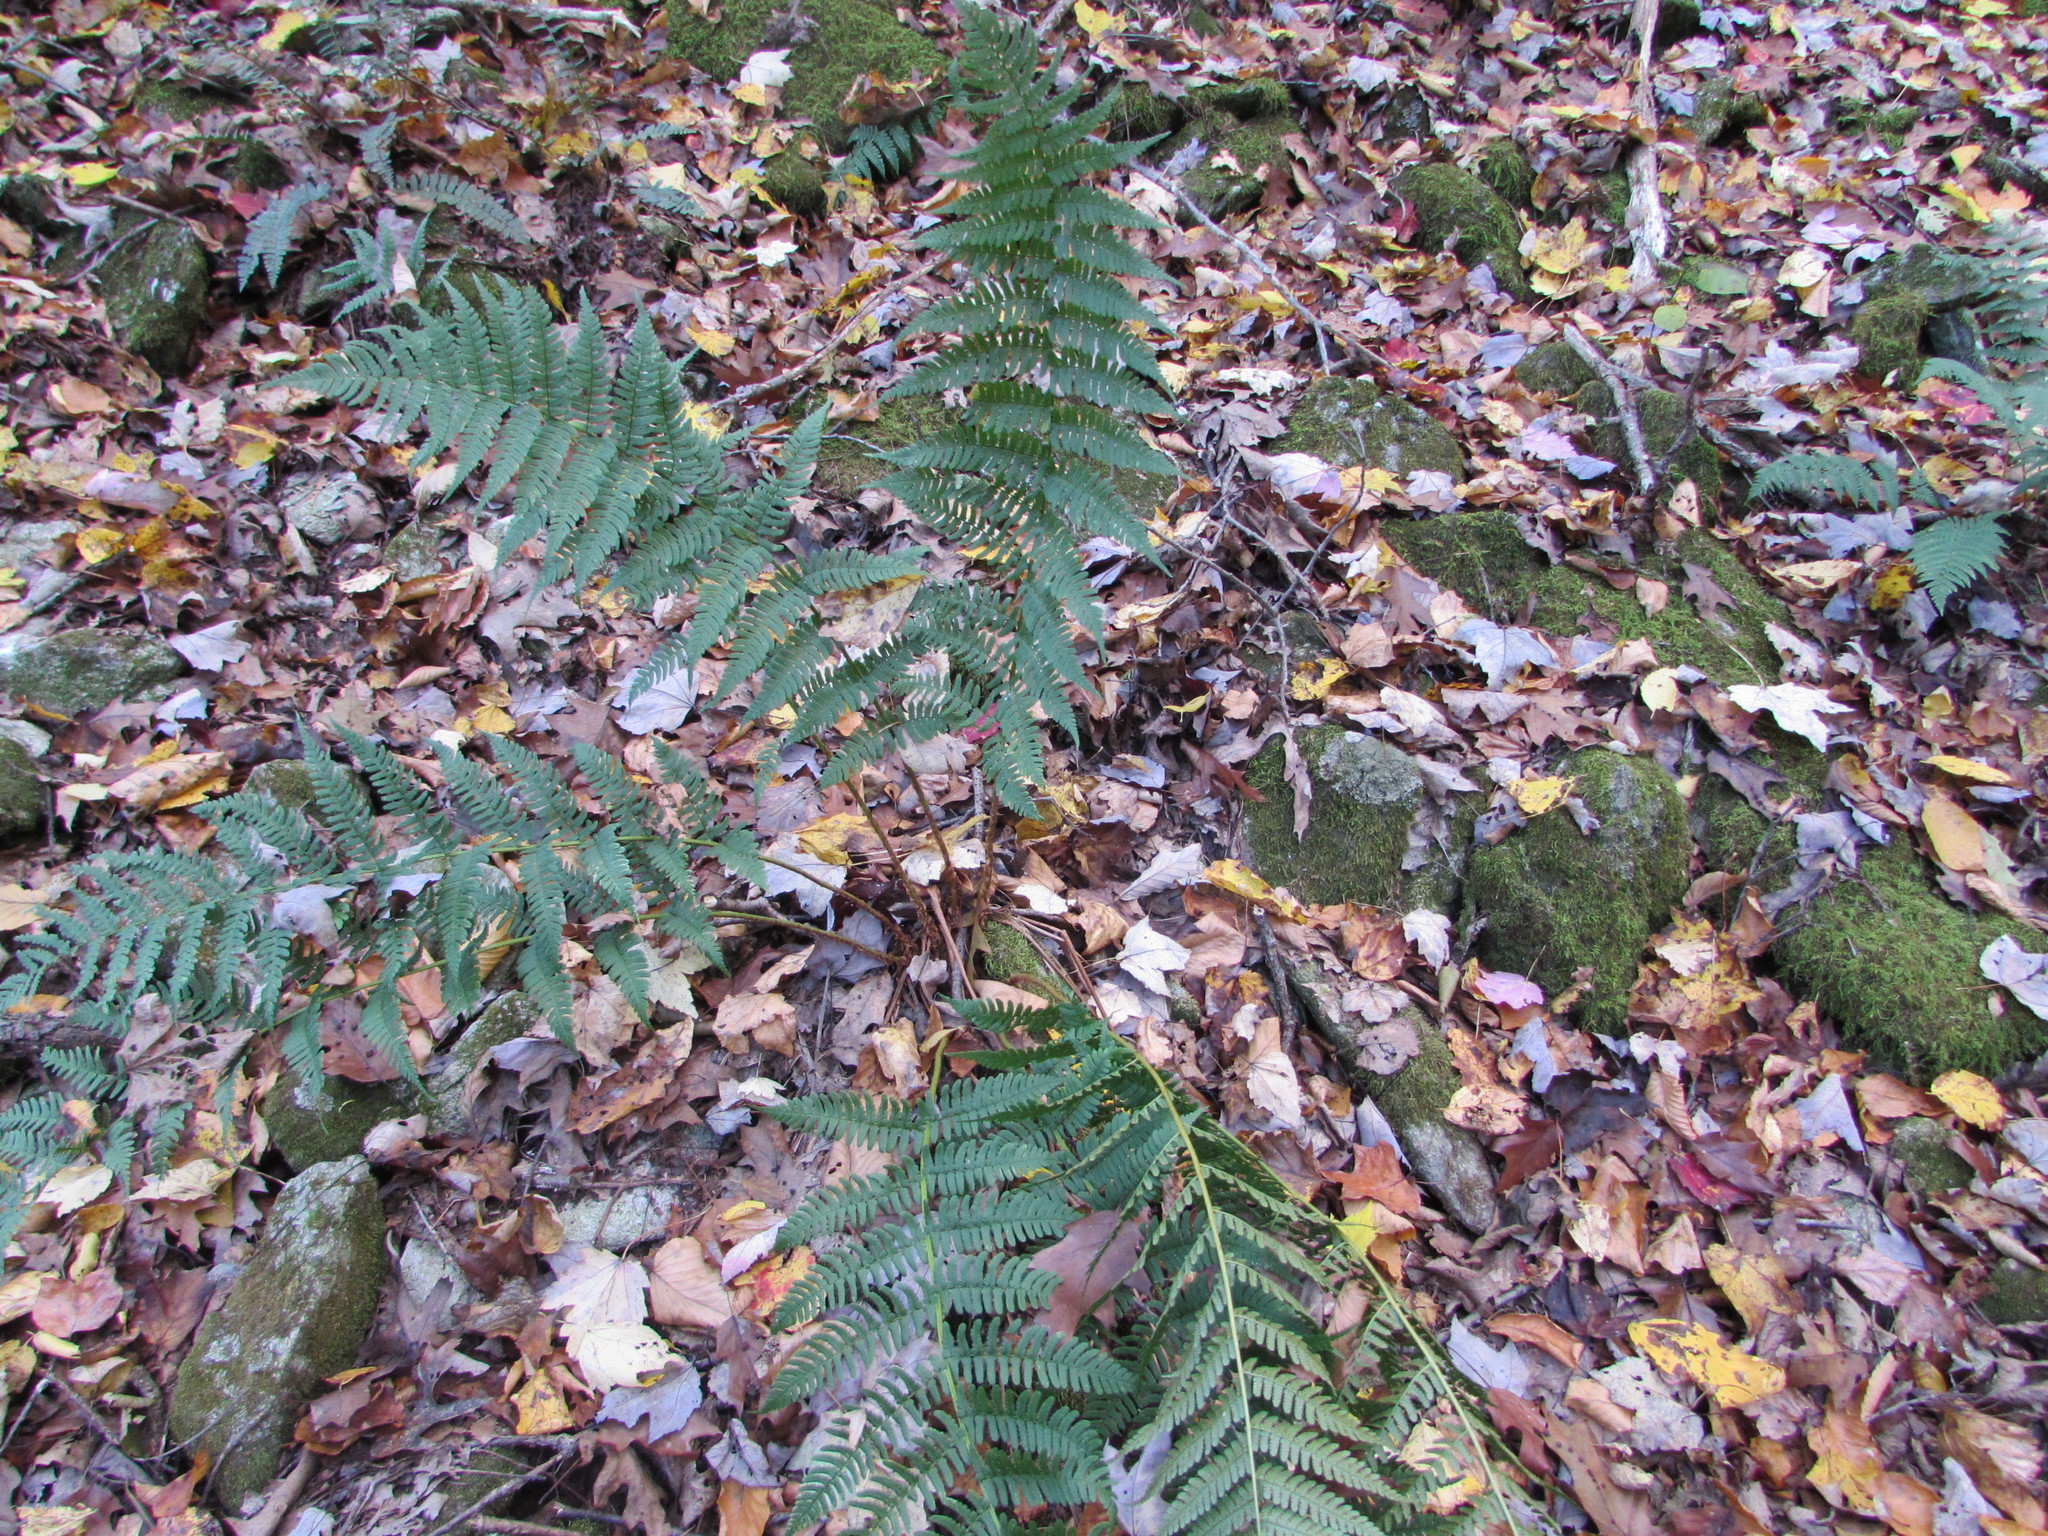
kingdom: Plantae
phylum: Tracheophyta
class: Polypodiopsida
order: Polypodiales
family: Dryopteridaceae
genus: Dryopteris
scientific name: Dryopteris marginalis
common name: Marginal wood fern
